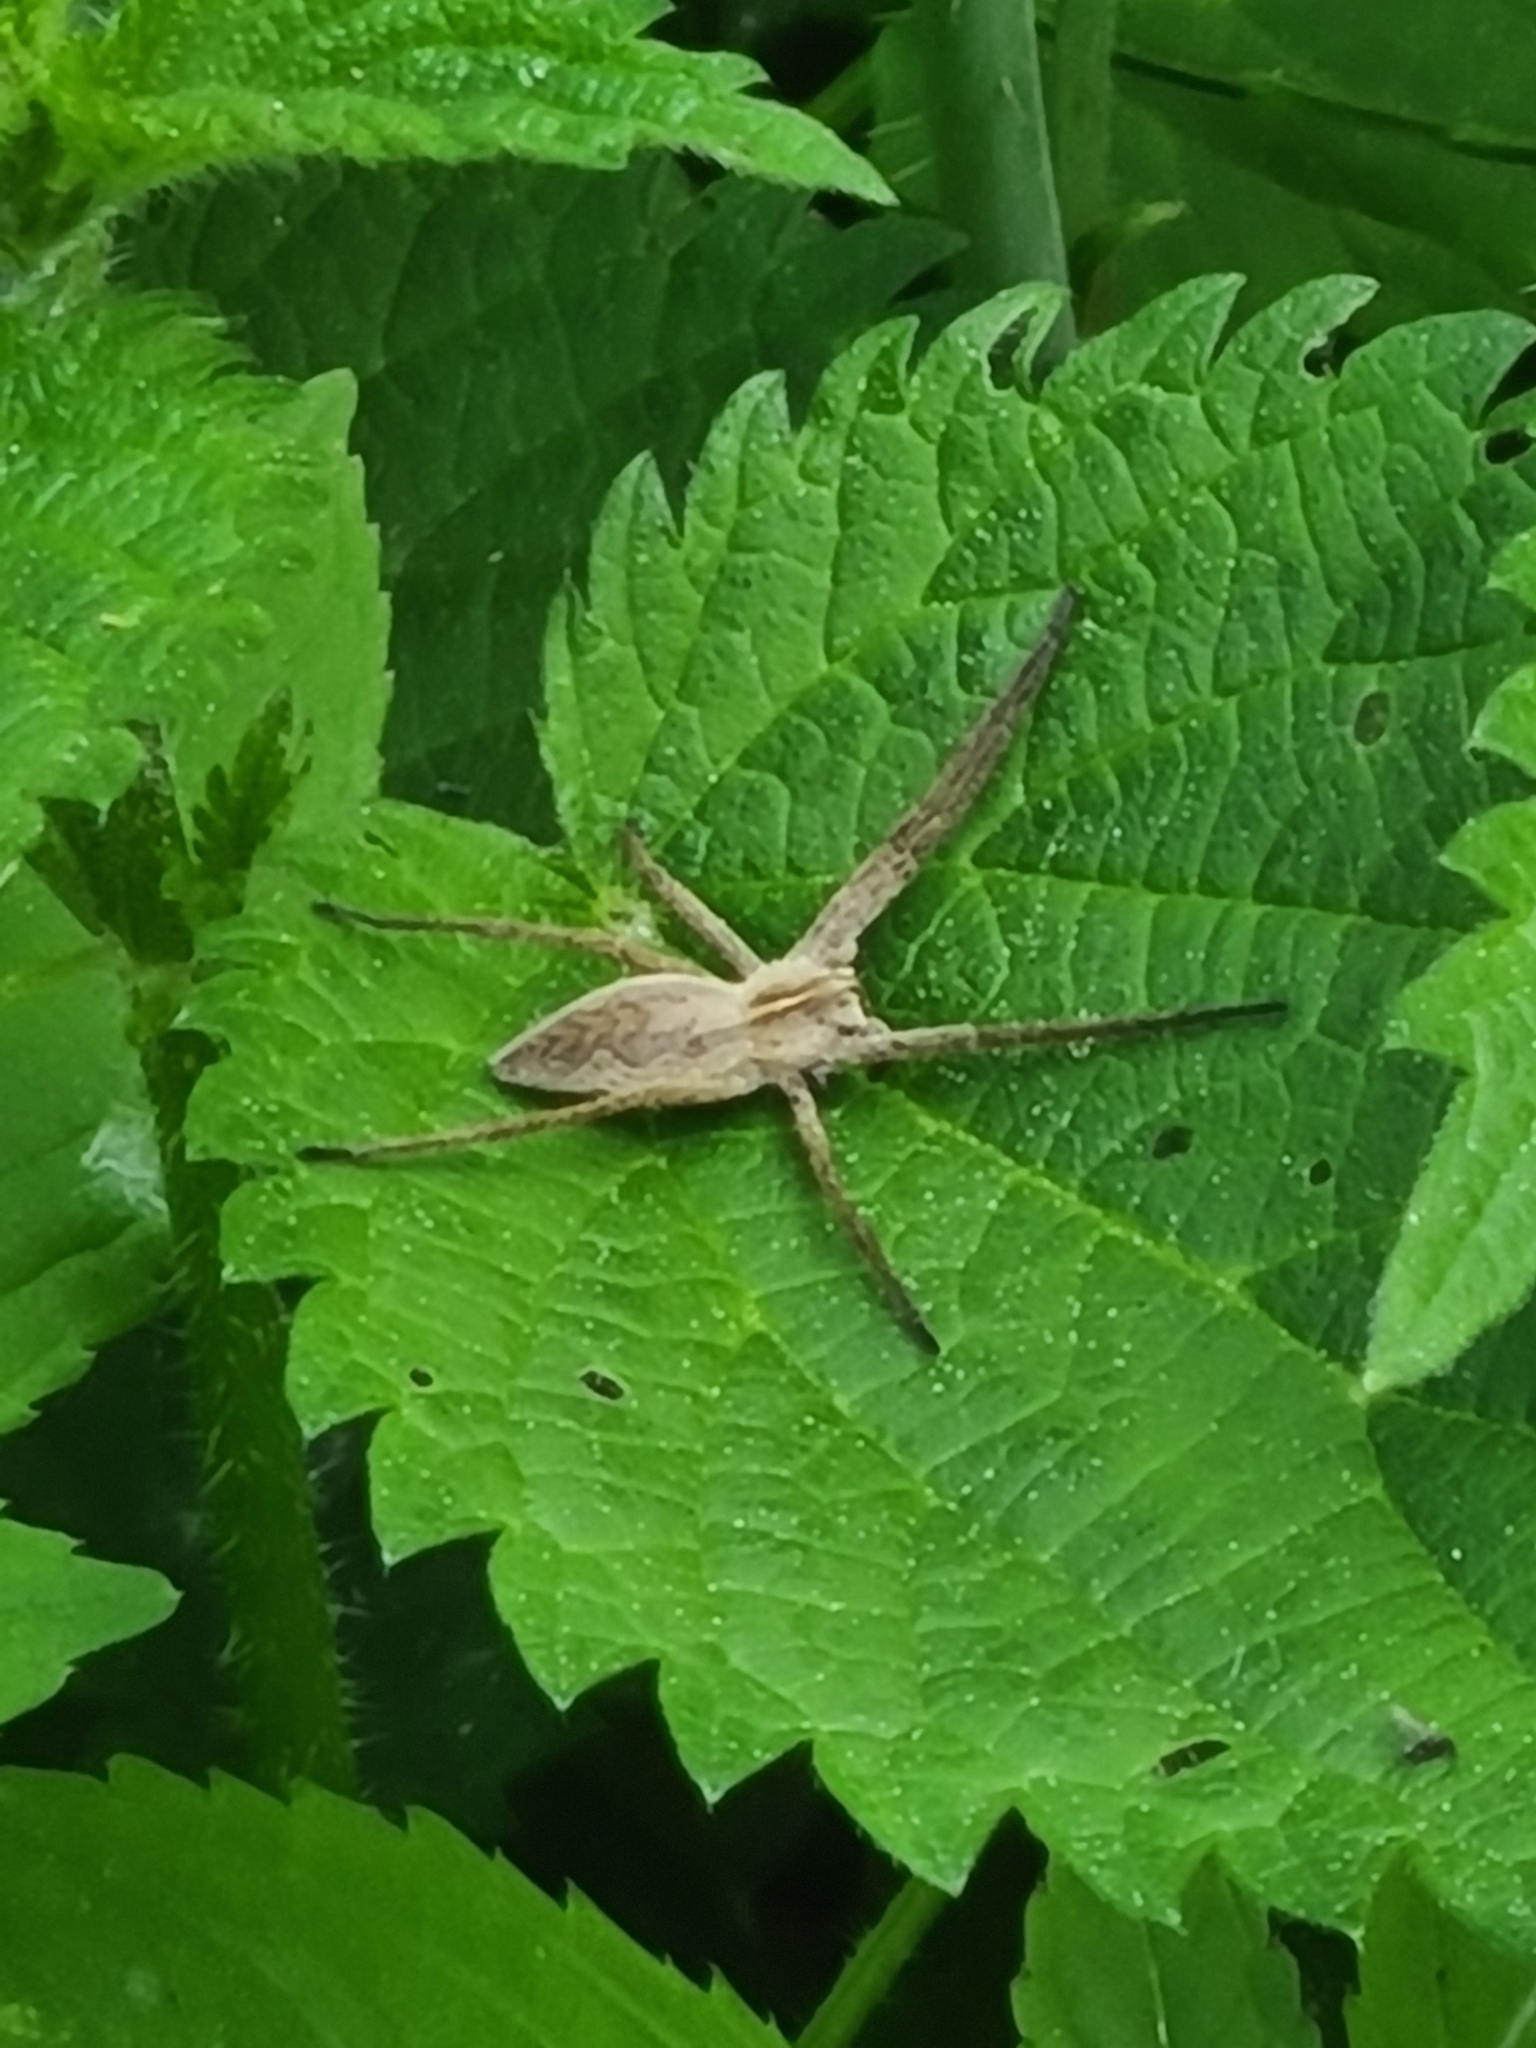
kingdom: Animalia
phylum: Arthropoda
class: Arachnida
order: Araneae
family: Pisauridae
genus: Pisaura
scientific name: Pisaura mirabilis
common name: Tent spider
